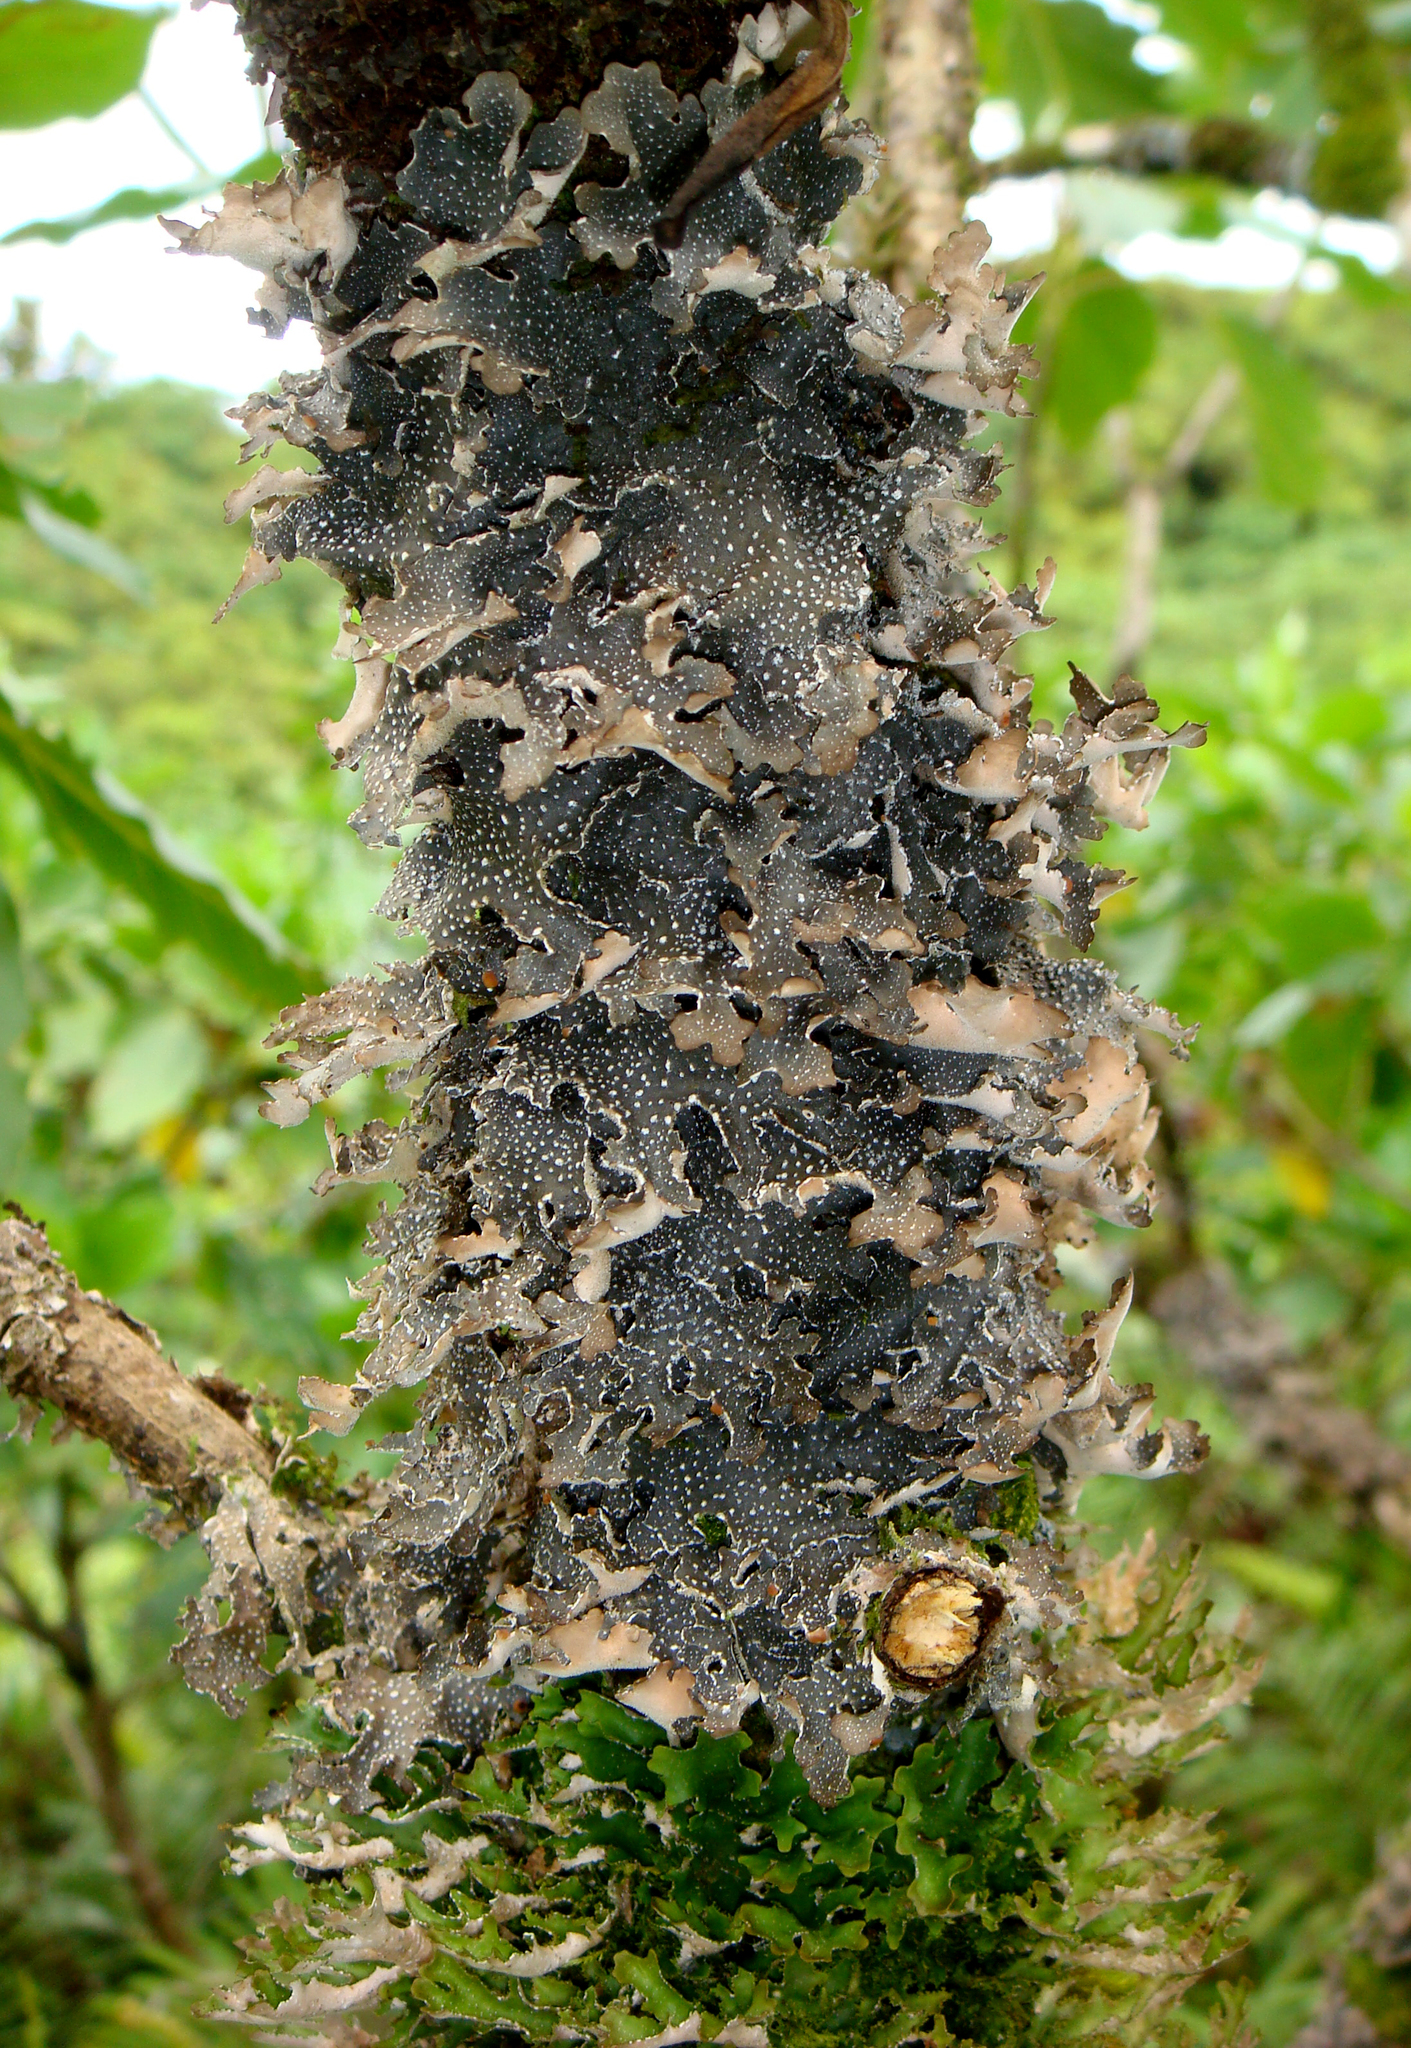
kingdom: Fungi
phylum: Ascomycota
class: Lecanoromycetes
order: Peltigerales
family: Lobariaceae
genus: Pseudocyphellaria
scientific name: Pseudocyphellaria intricata
